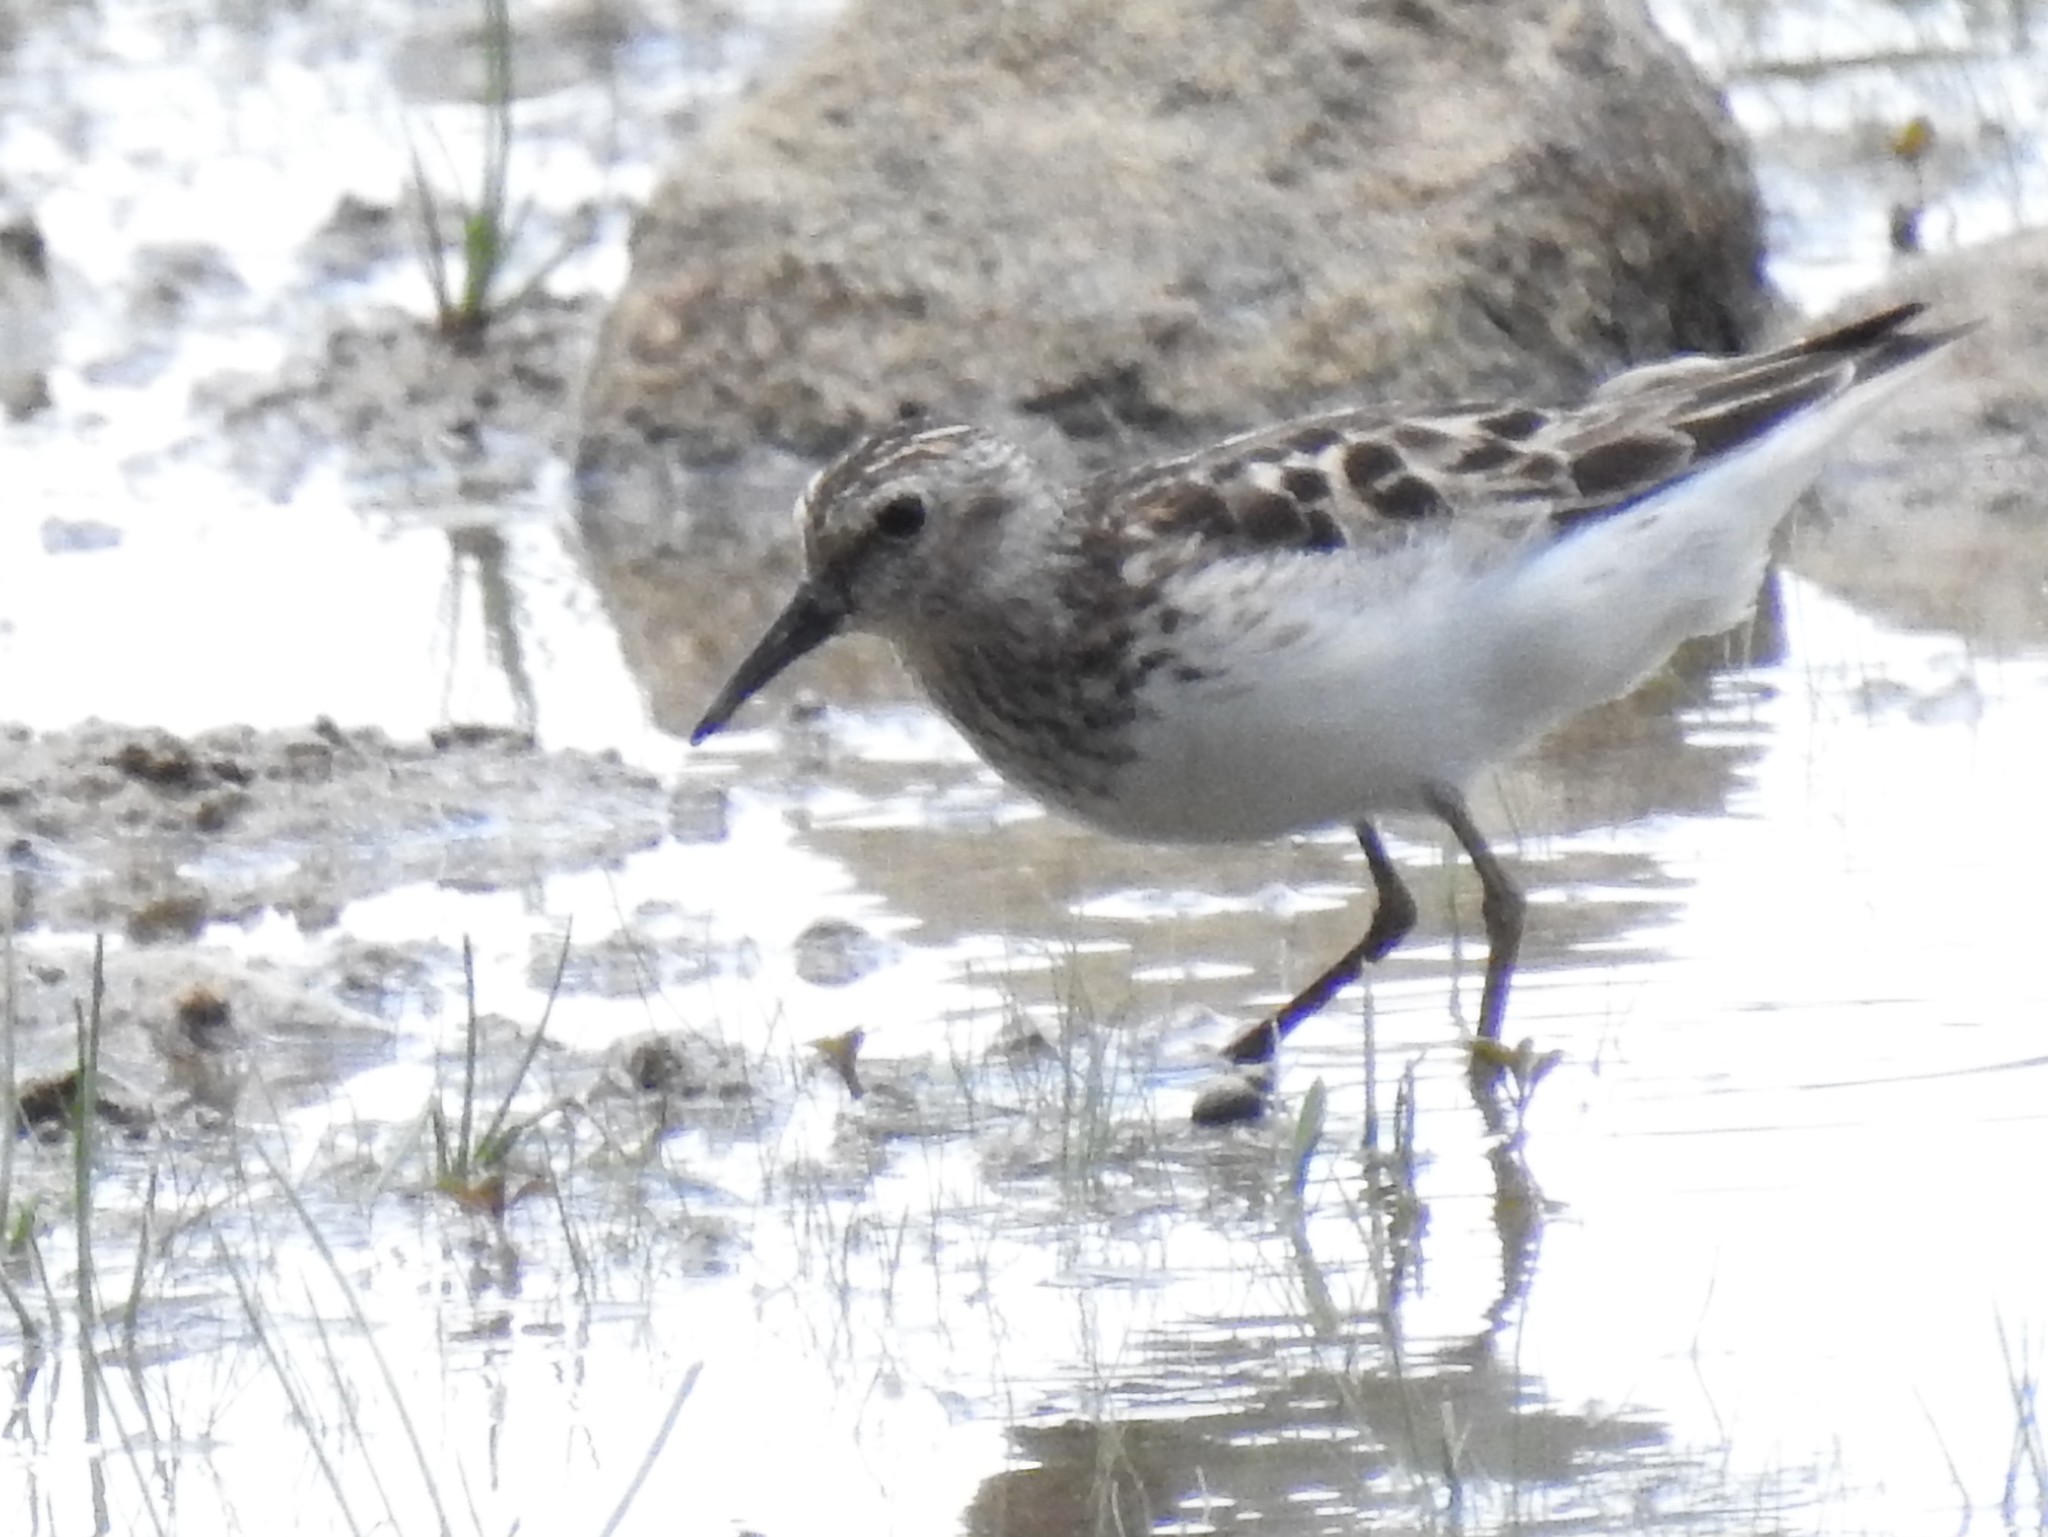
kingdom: Animalia
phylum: Chordata
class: Aves
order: Charadriiformes
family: Scolopacidae
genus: Calidris
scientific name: Calidris minutilla
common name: Least sandpiper
